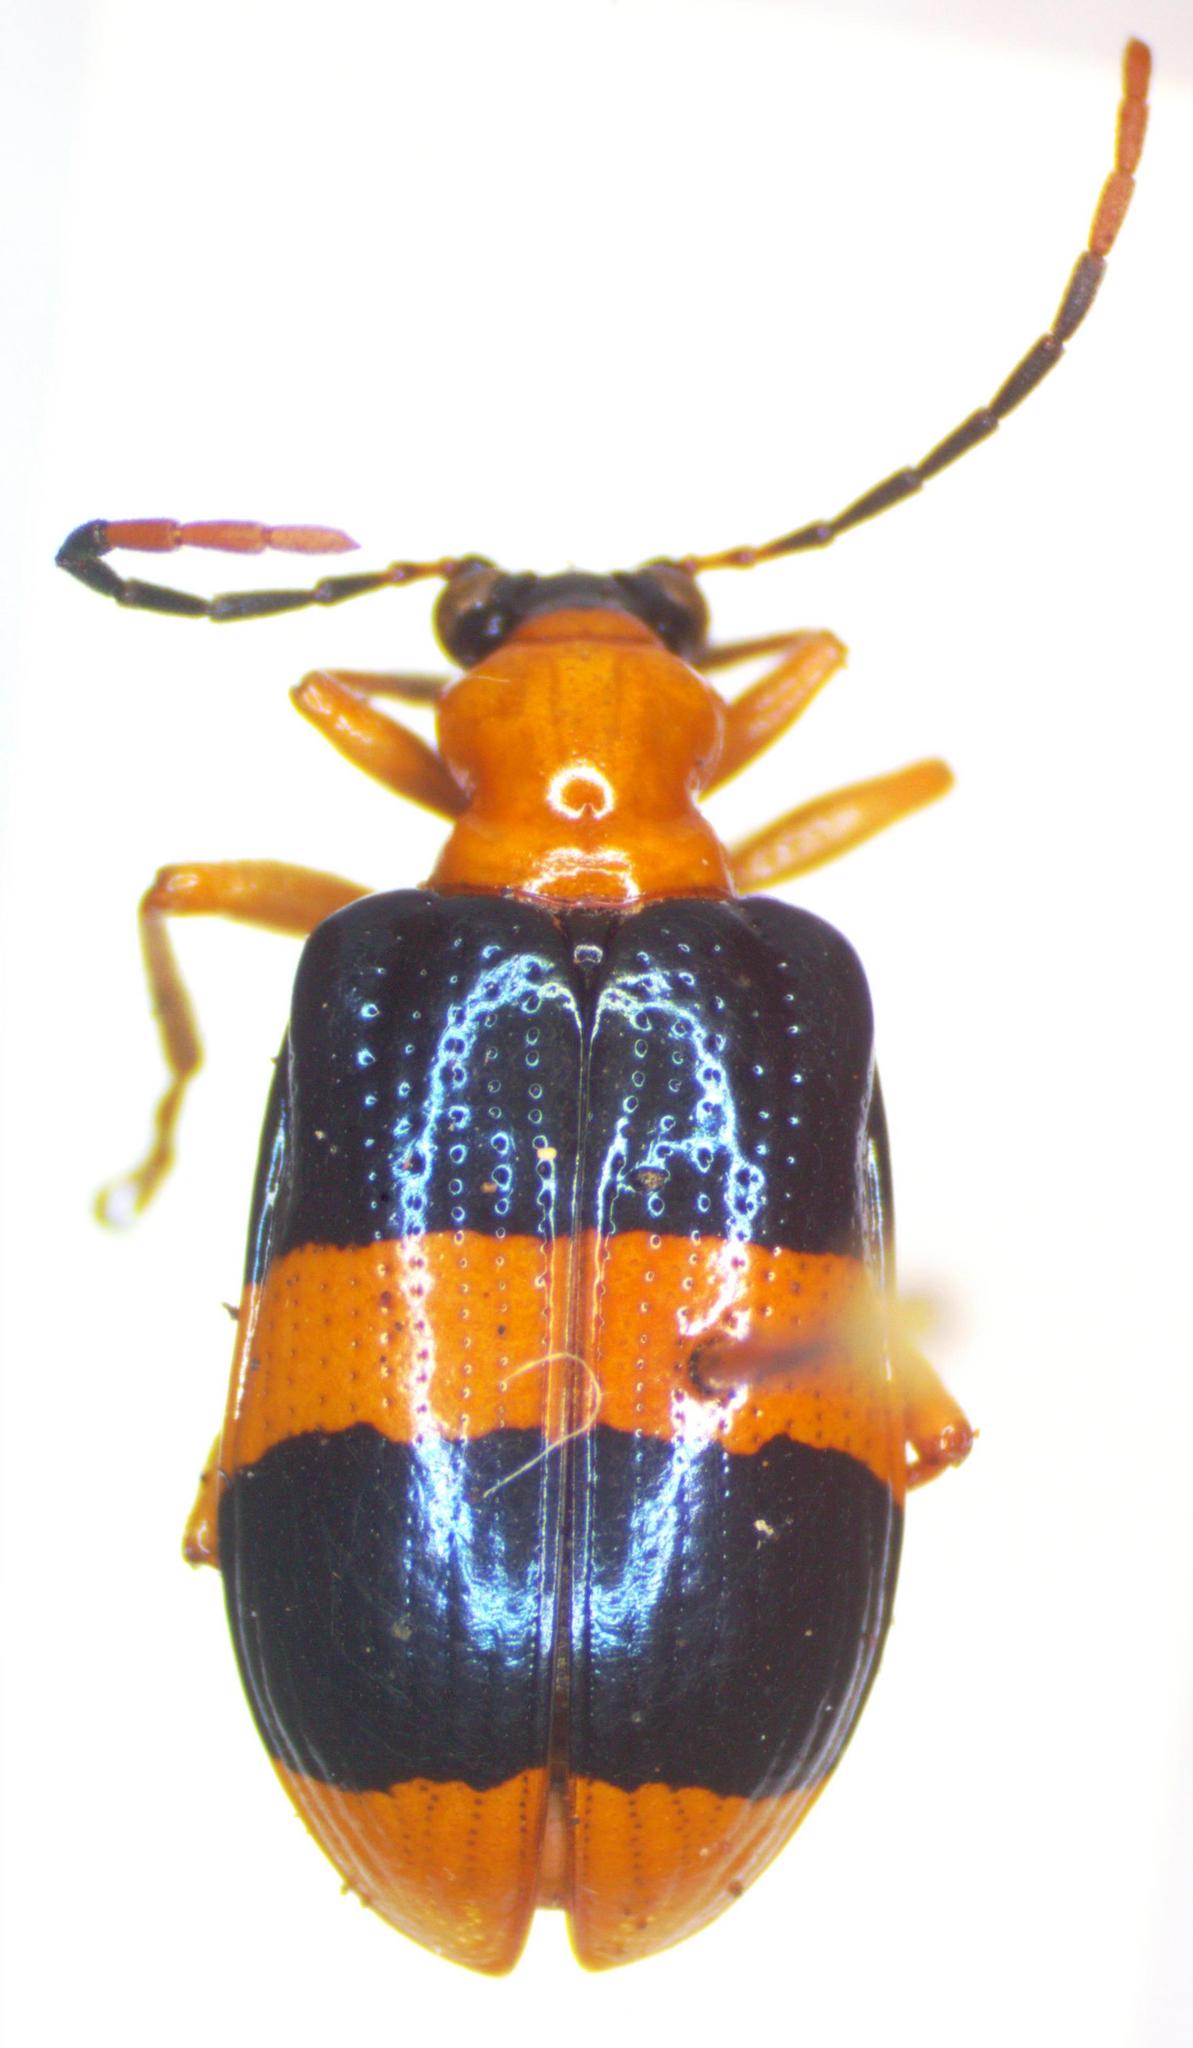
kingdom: Animalia
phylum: Arthropoda
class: Insecta
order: Coleoptera
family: Chrysomelidae
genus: Lema
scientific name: Lema
